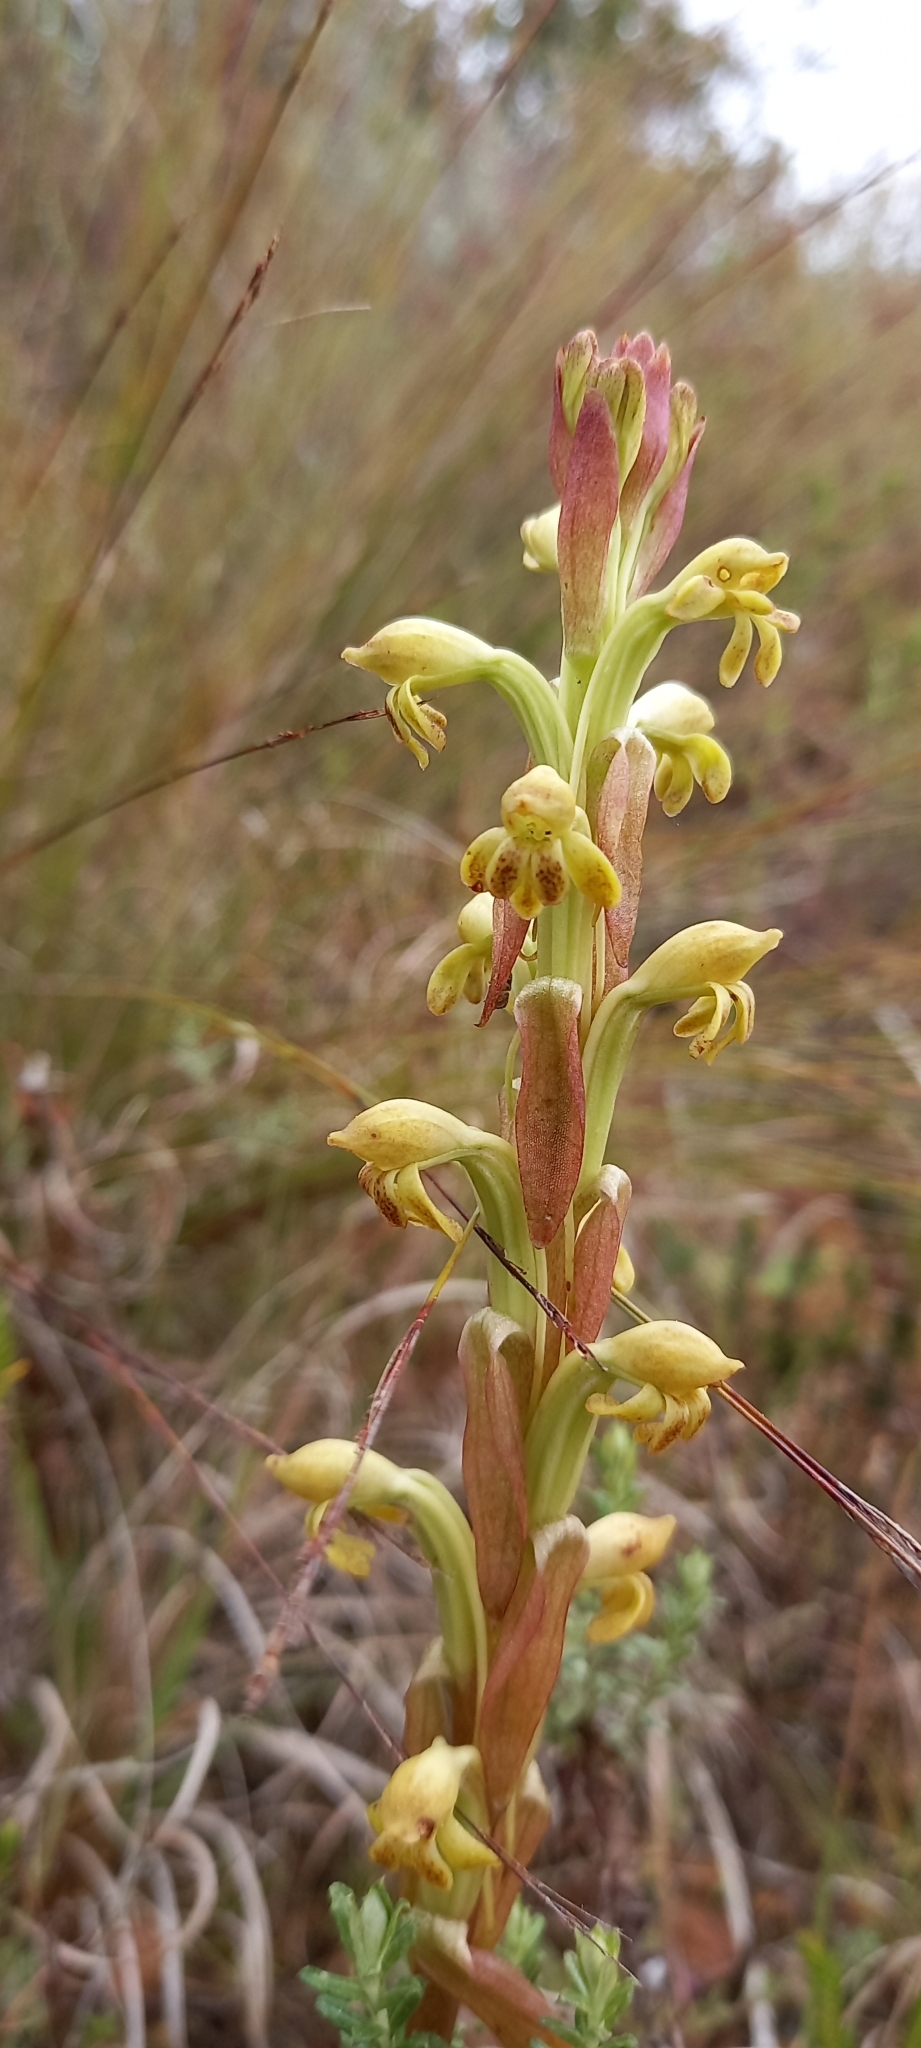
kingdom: Plantae
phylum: Tracheophyta
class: Liliopsida
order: Asparagales
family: Orchidaceae
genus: Satyrium
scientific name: Satyrium bicorne
